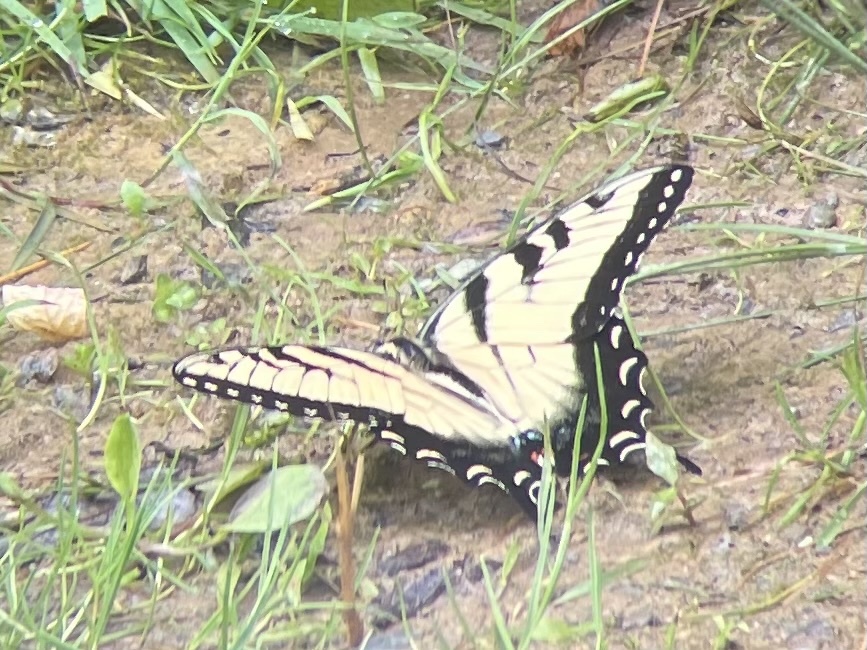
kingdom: Animalia
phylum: Arthropoda
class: Insecta
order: Lepidoptera
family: Papilionidae
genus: Papilio
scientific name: Papilio glaucus
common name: Tiger swallowtail
